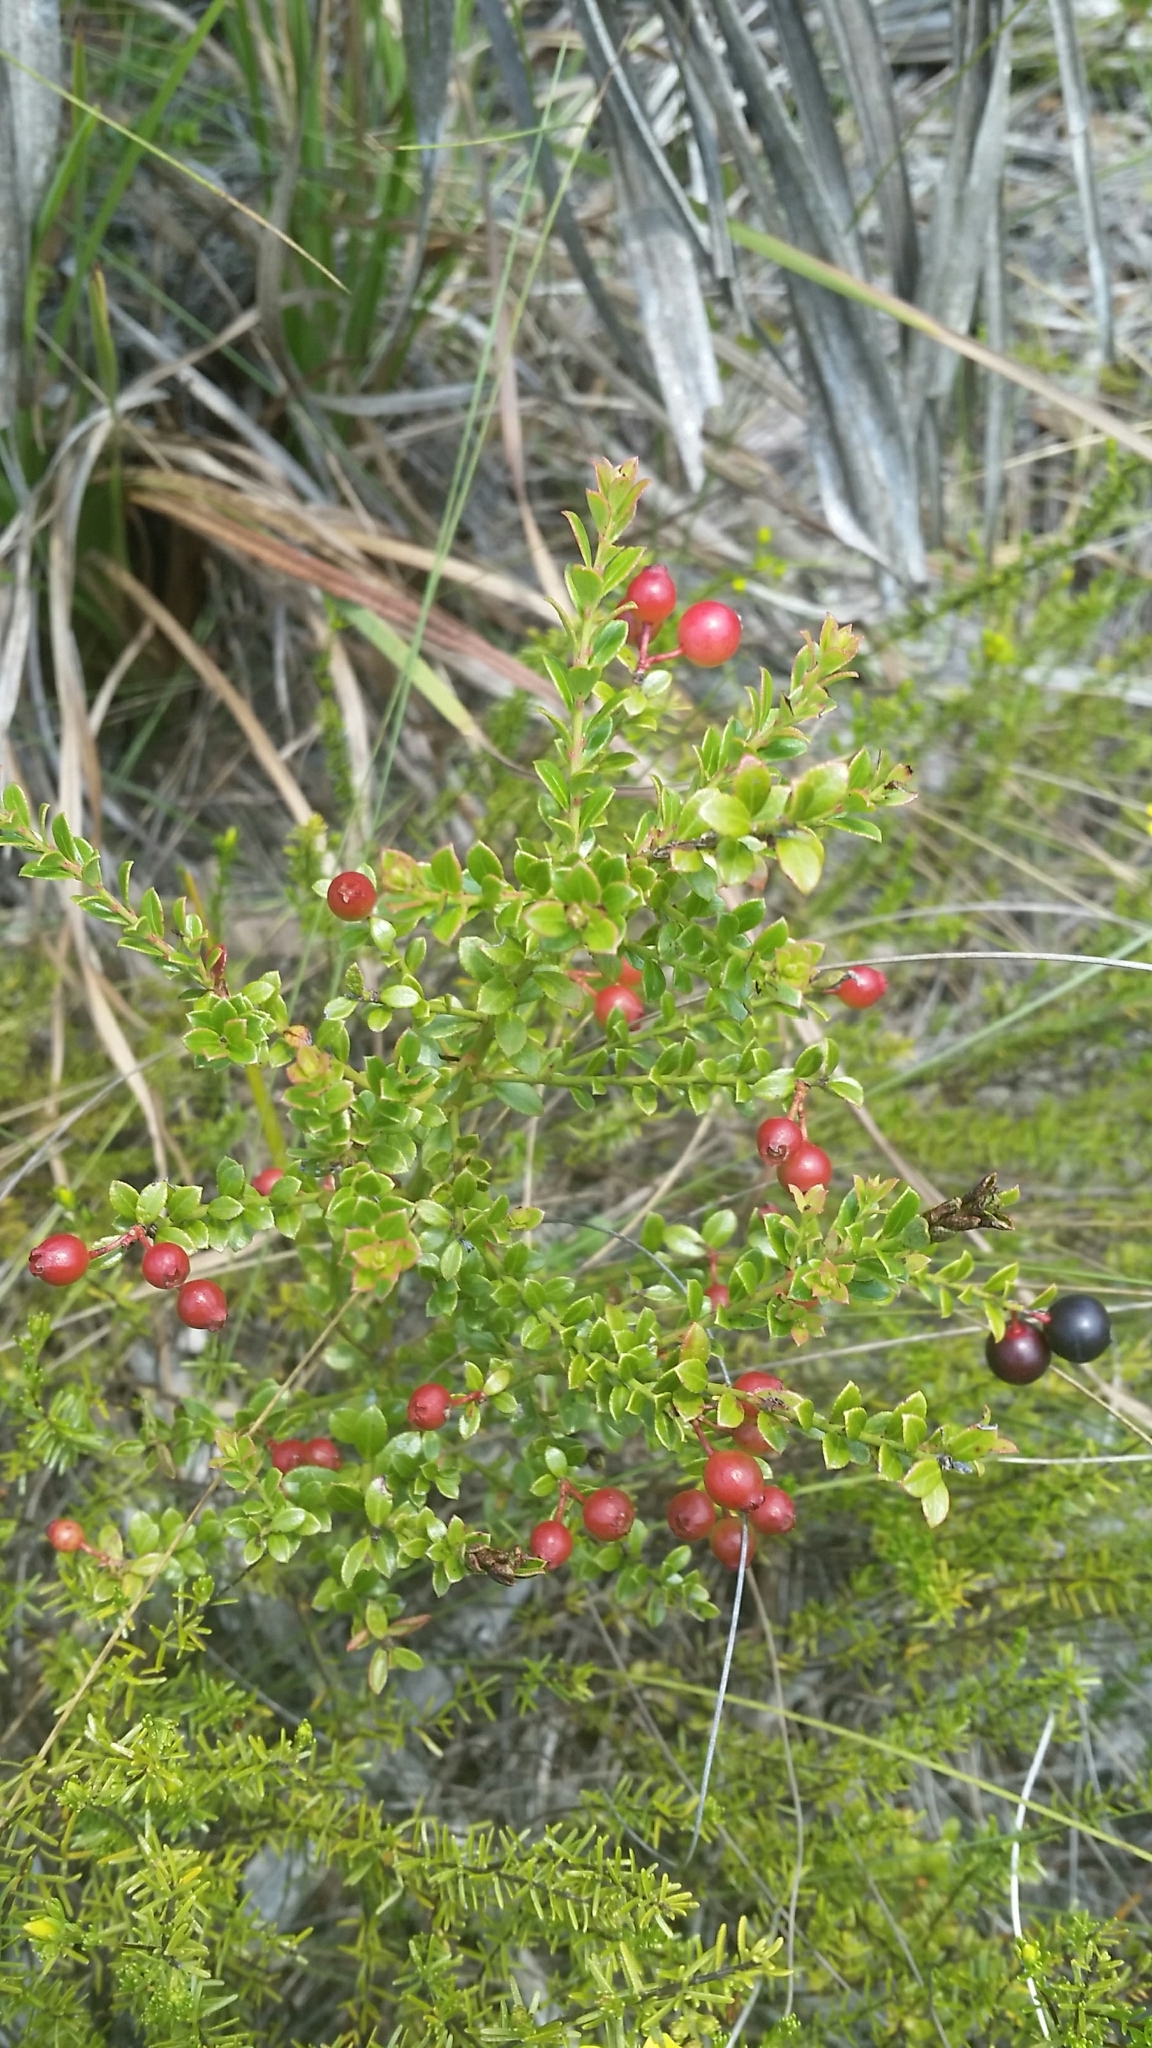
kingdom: Plantae
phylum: Tracheophyta
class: Magnoliopsida
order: Ericales
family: Ericaceae
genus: Vaccinium
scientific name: Vaccinium myrsinites
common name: Evergreen blueberry
